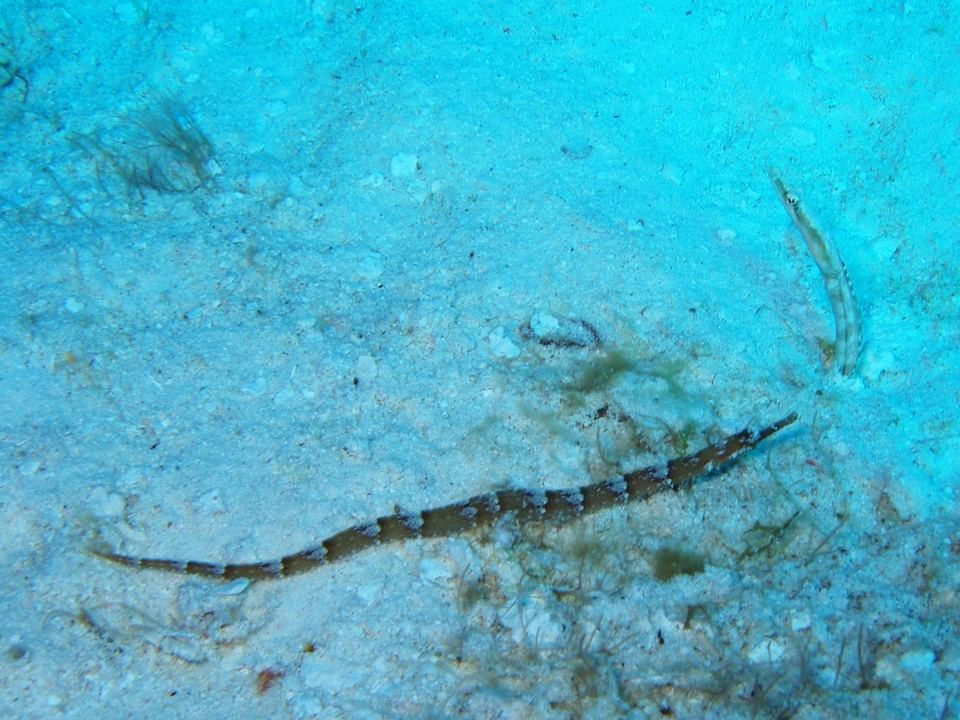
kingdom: Animalia
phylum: Chordata
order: Perciformes
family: Chaenopsidae
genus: Chaenopsis
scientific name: Chaenopsis limbaughi
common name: Yellowface pikeblenny
